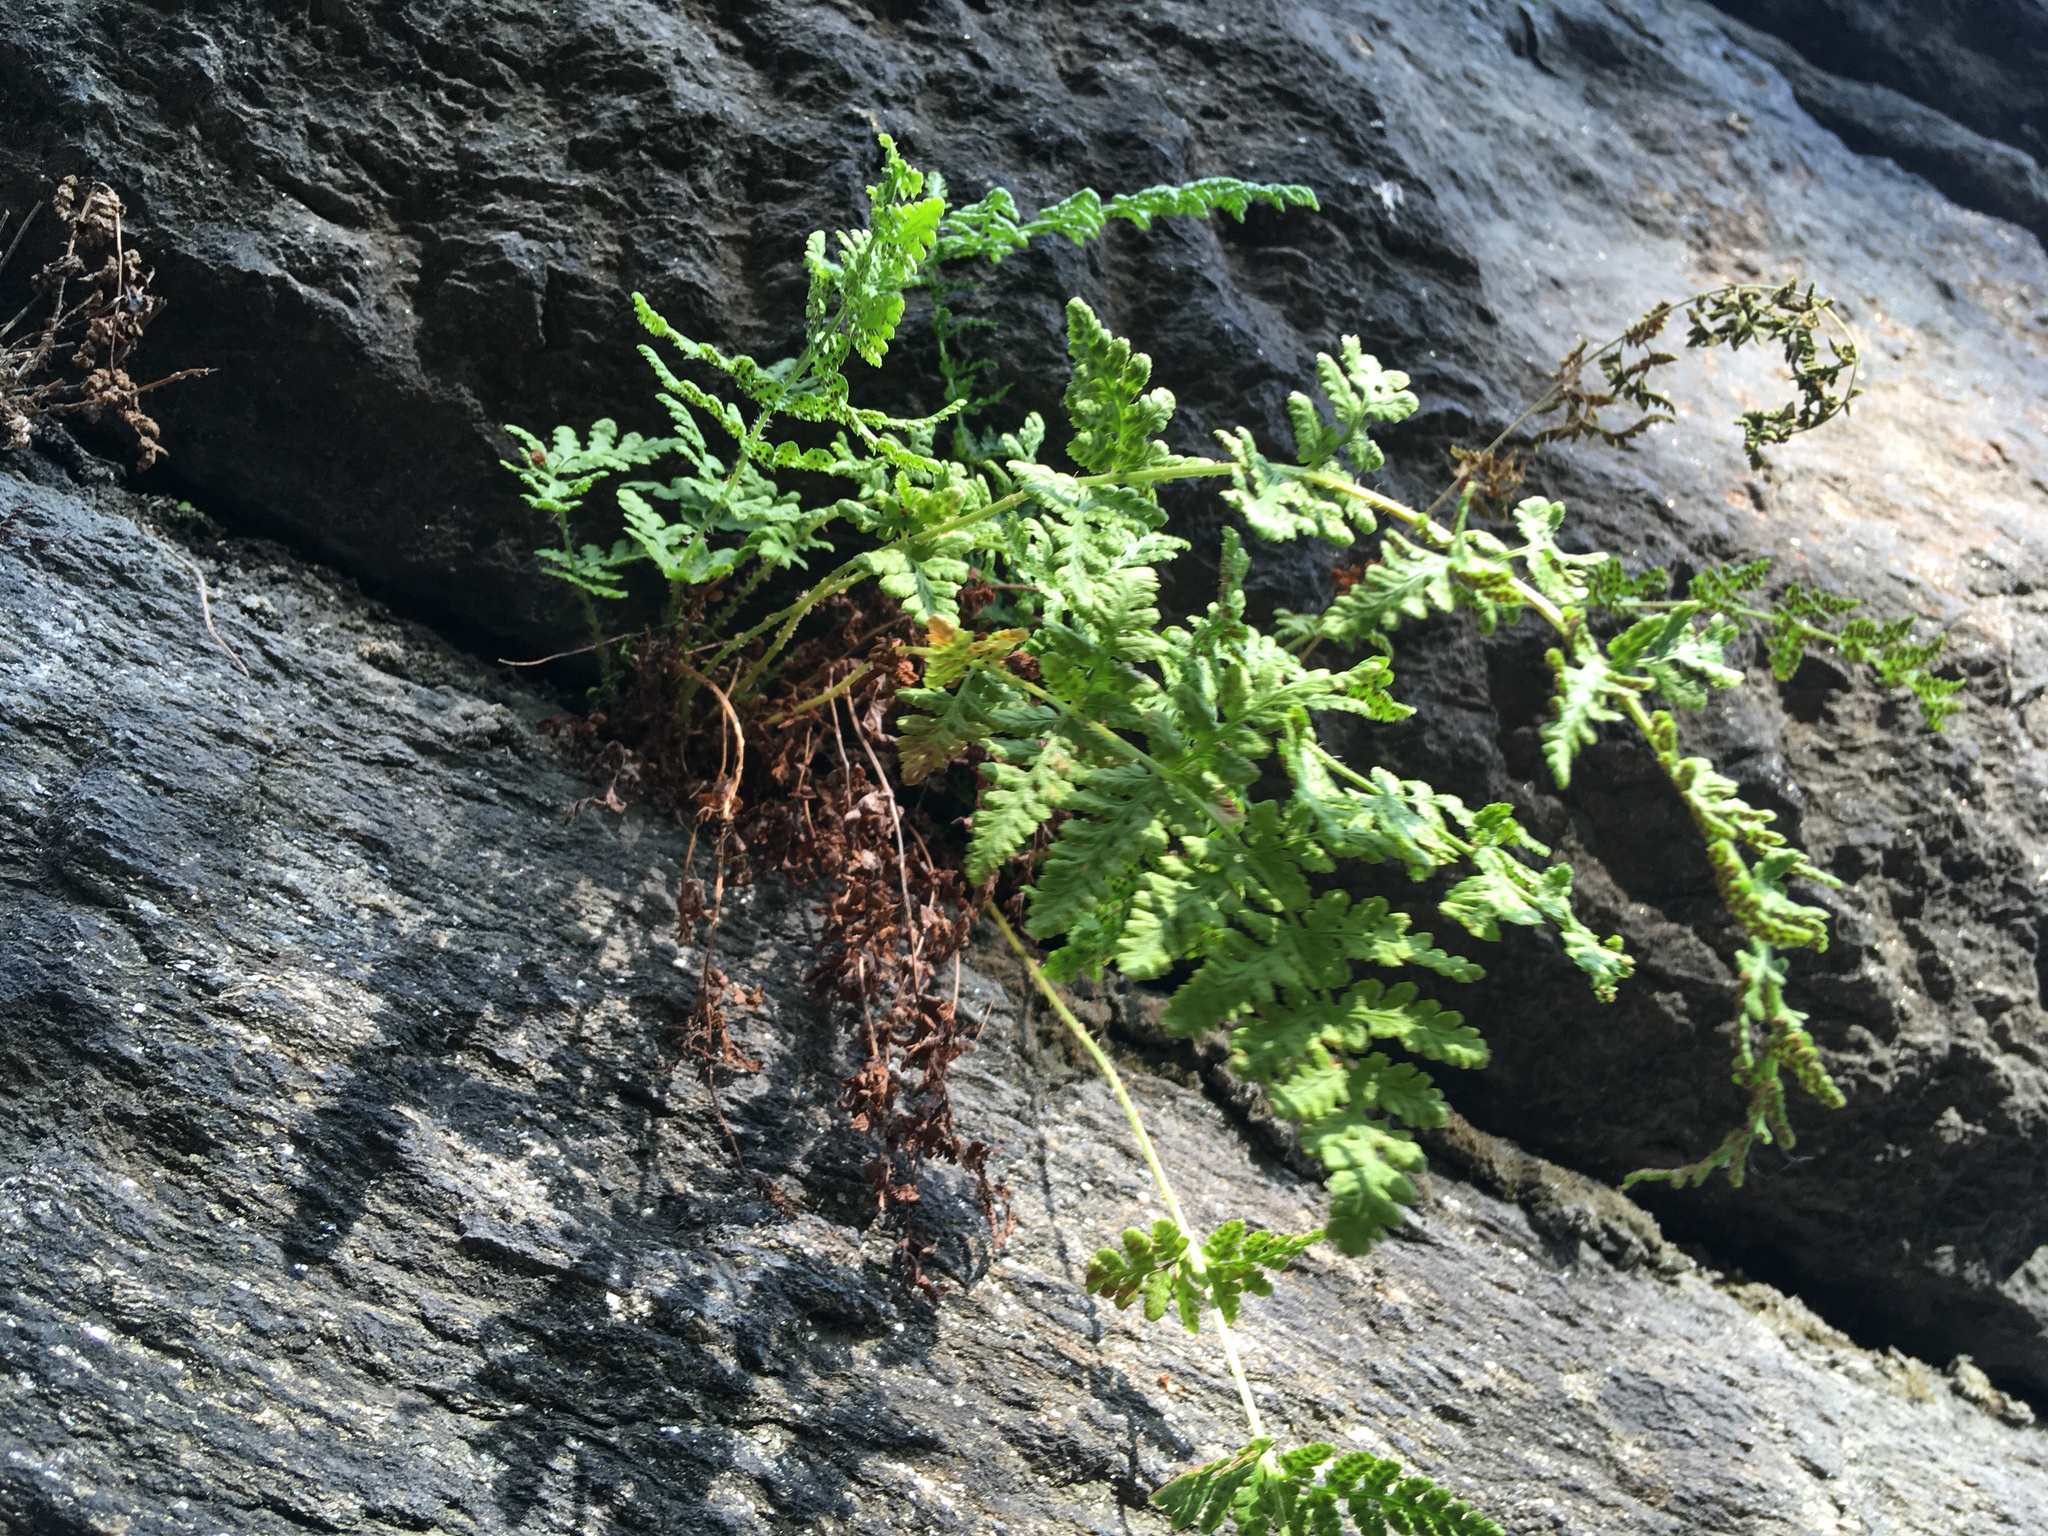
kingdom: Plantae
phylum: Tracheophyta
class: Polypodiopsida
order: Polypodiales
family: Woodsiaceae
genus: Physematium
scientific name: Physematium obtusum
